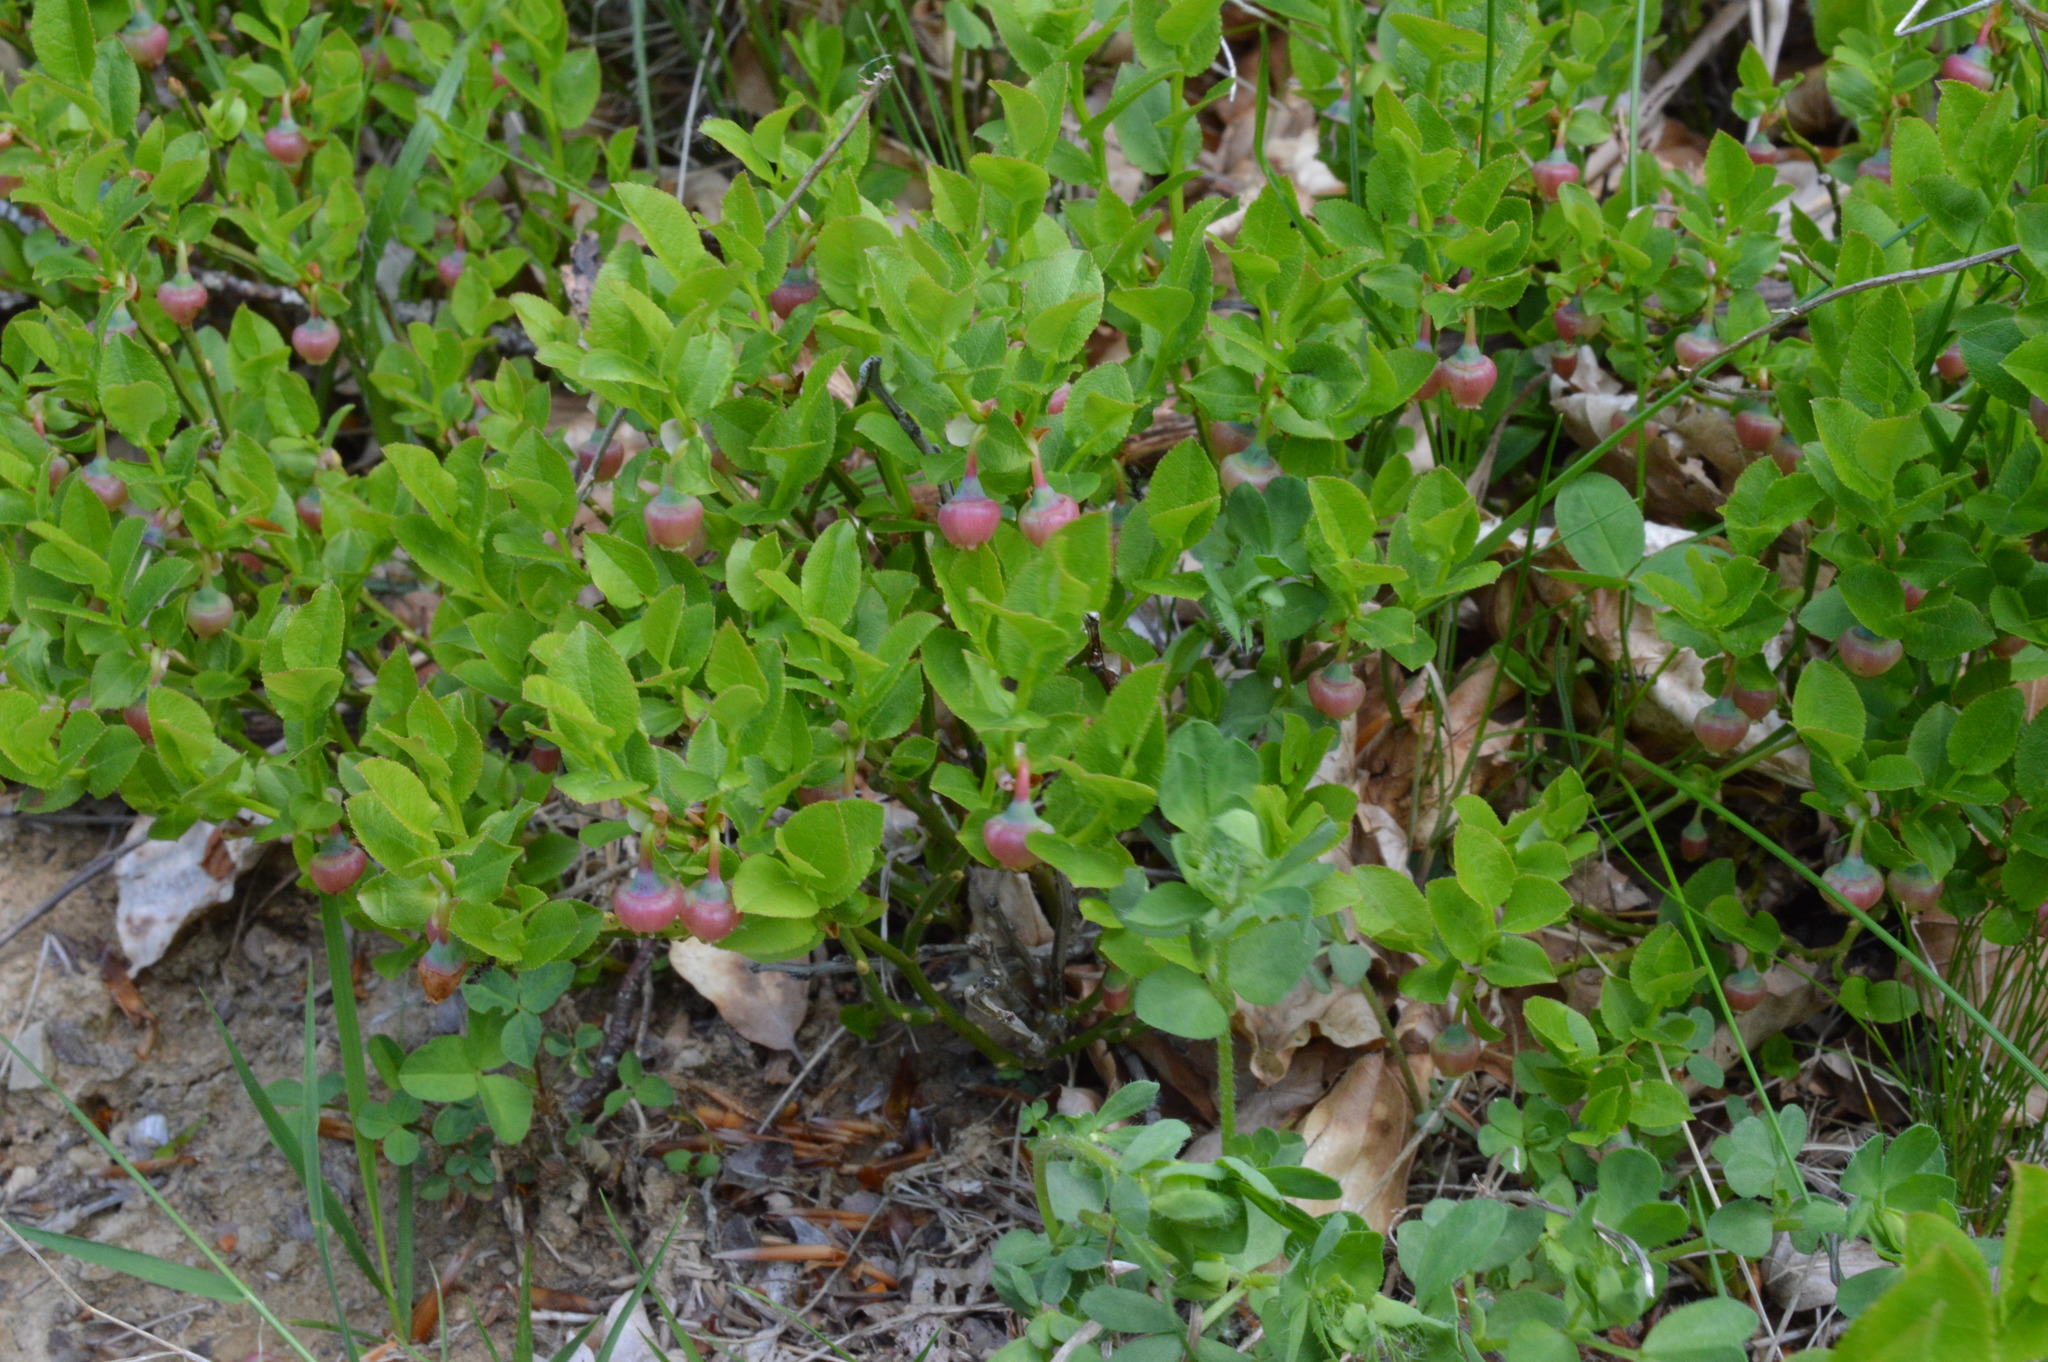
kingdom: Plantae
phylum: Tracheophyta
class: Magnoliopsida
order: Ericales
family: Ericaceae
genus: Vaccinium
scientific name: Vaccinium myrtillus
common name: Bilberry
